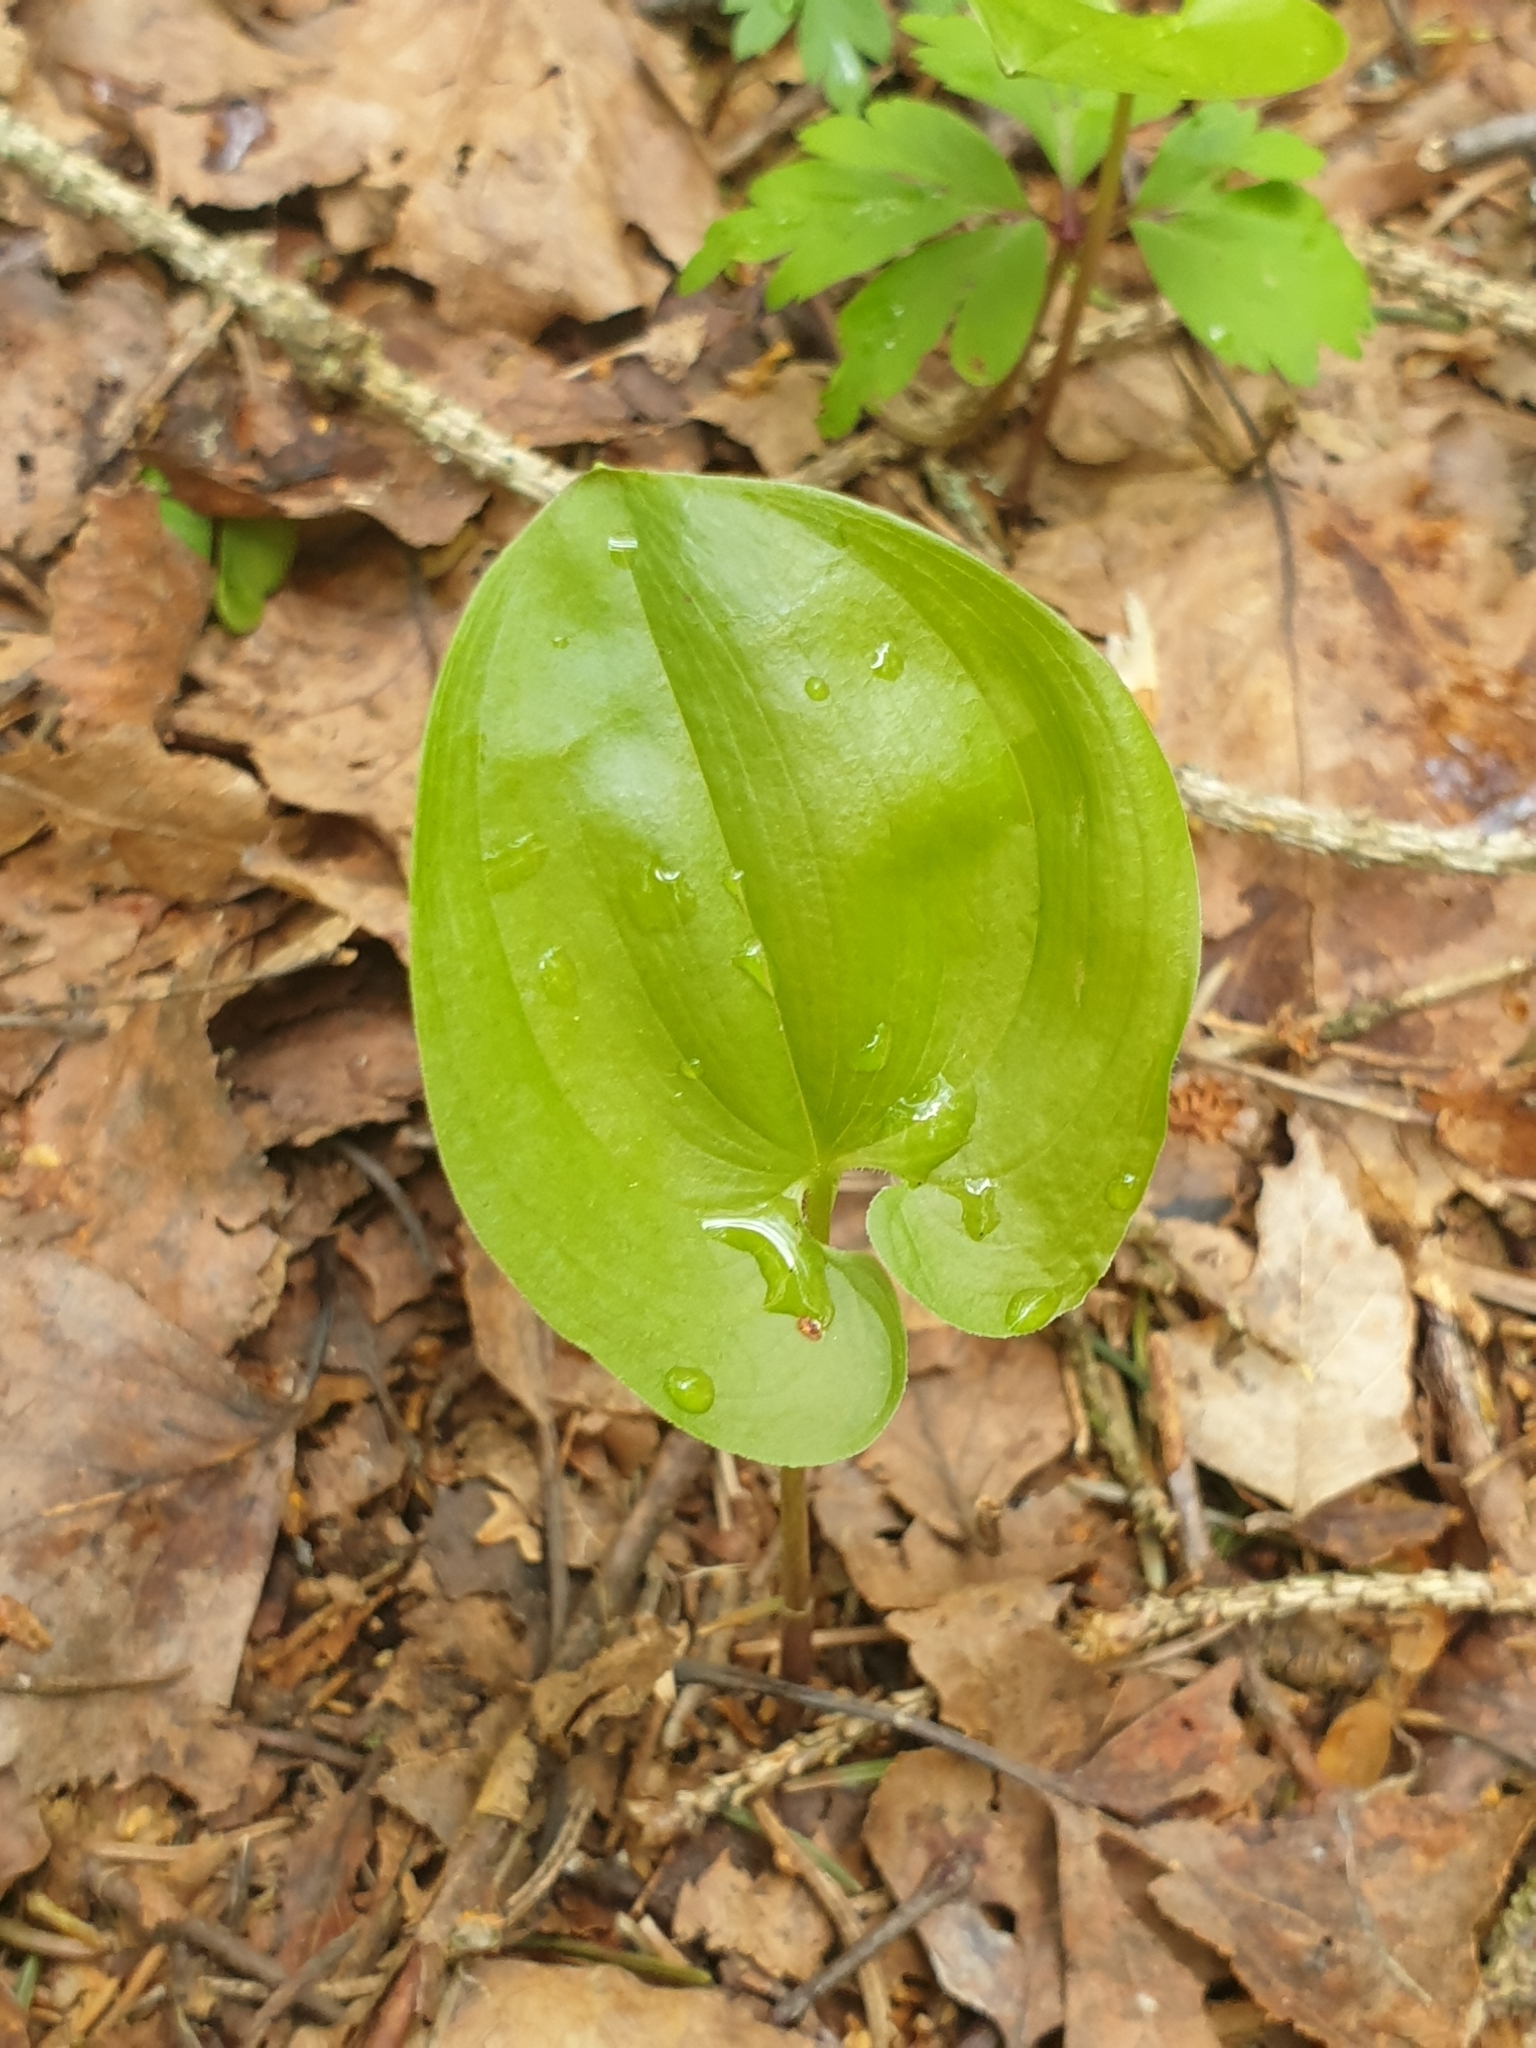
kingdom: Plantae
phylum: Tracheophyta
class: Liliopsida
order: Asparagales
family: Asparagaceae
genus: Maianthemum
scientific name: Maianthemum bifolium
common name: May lily
